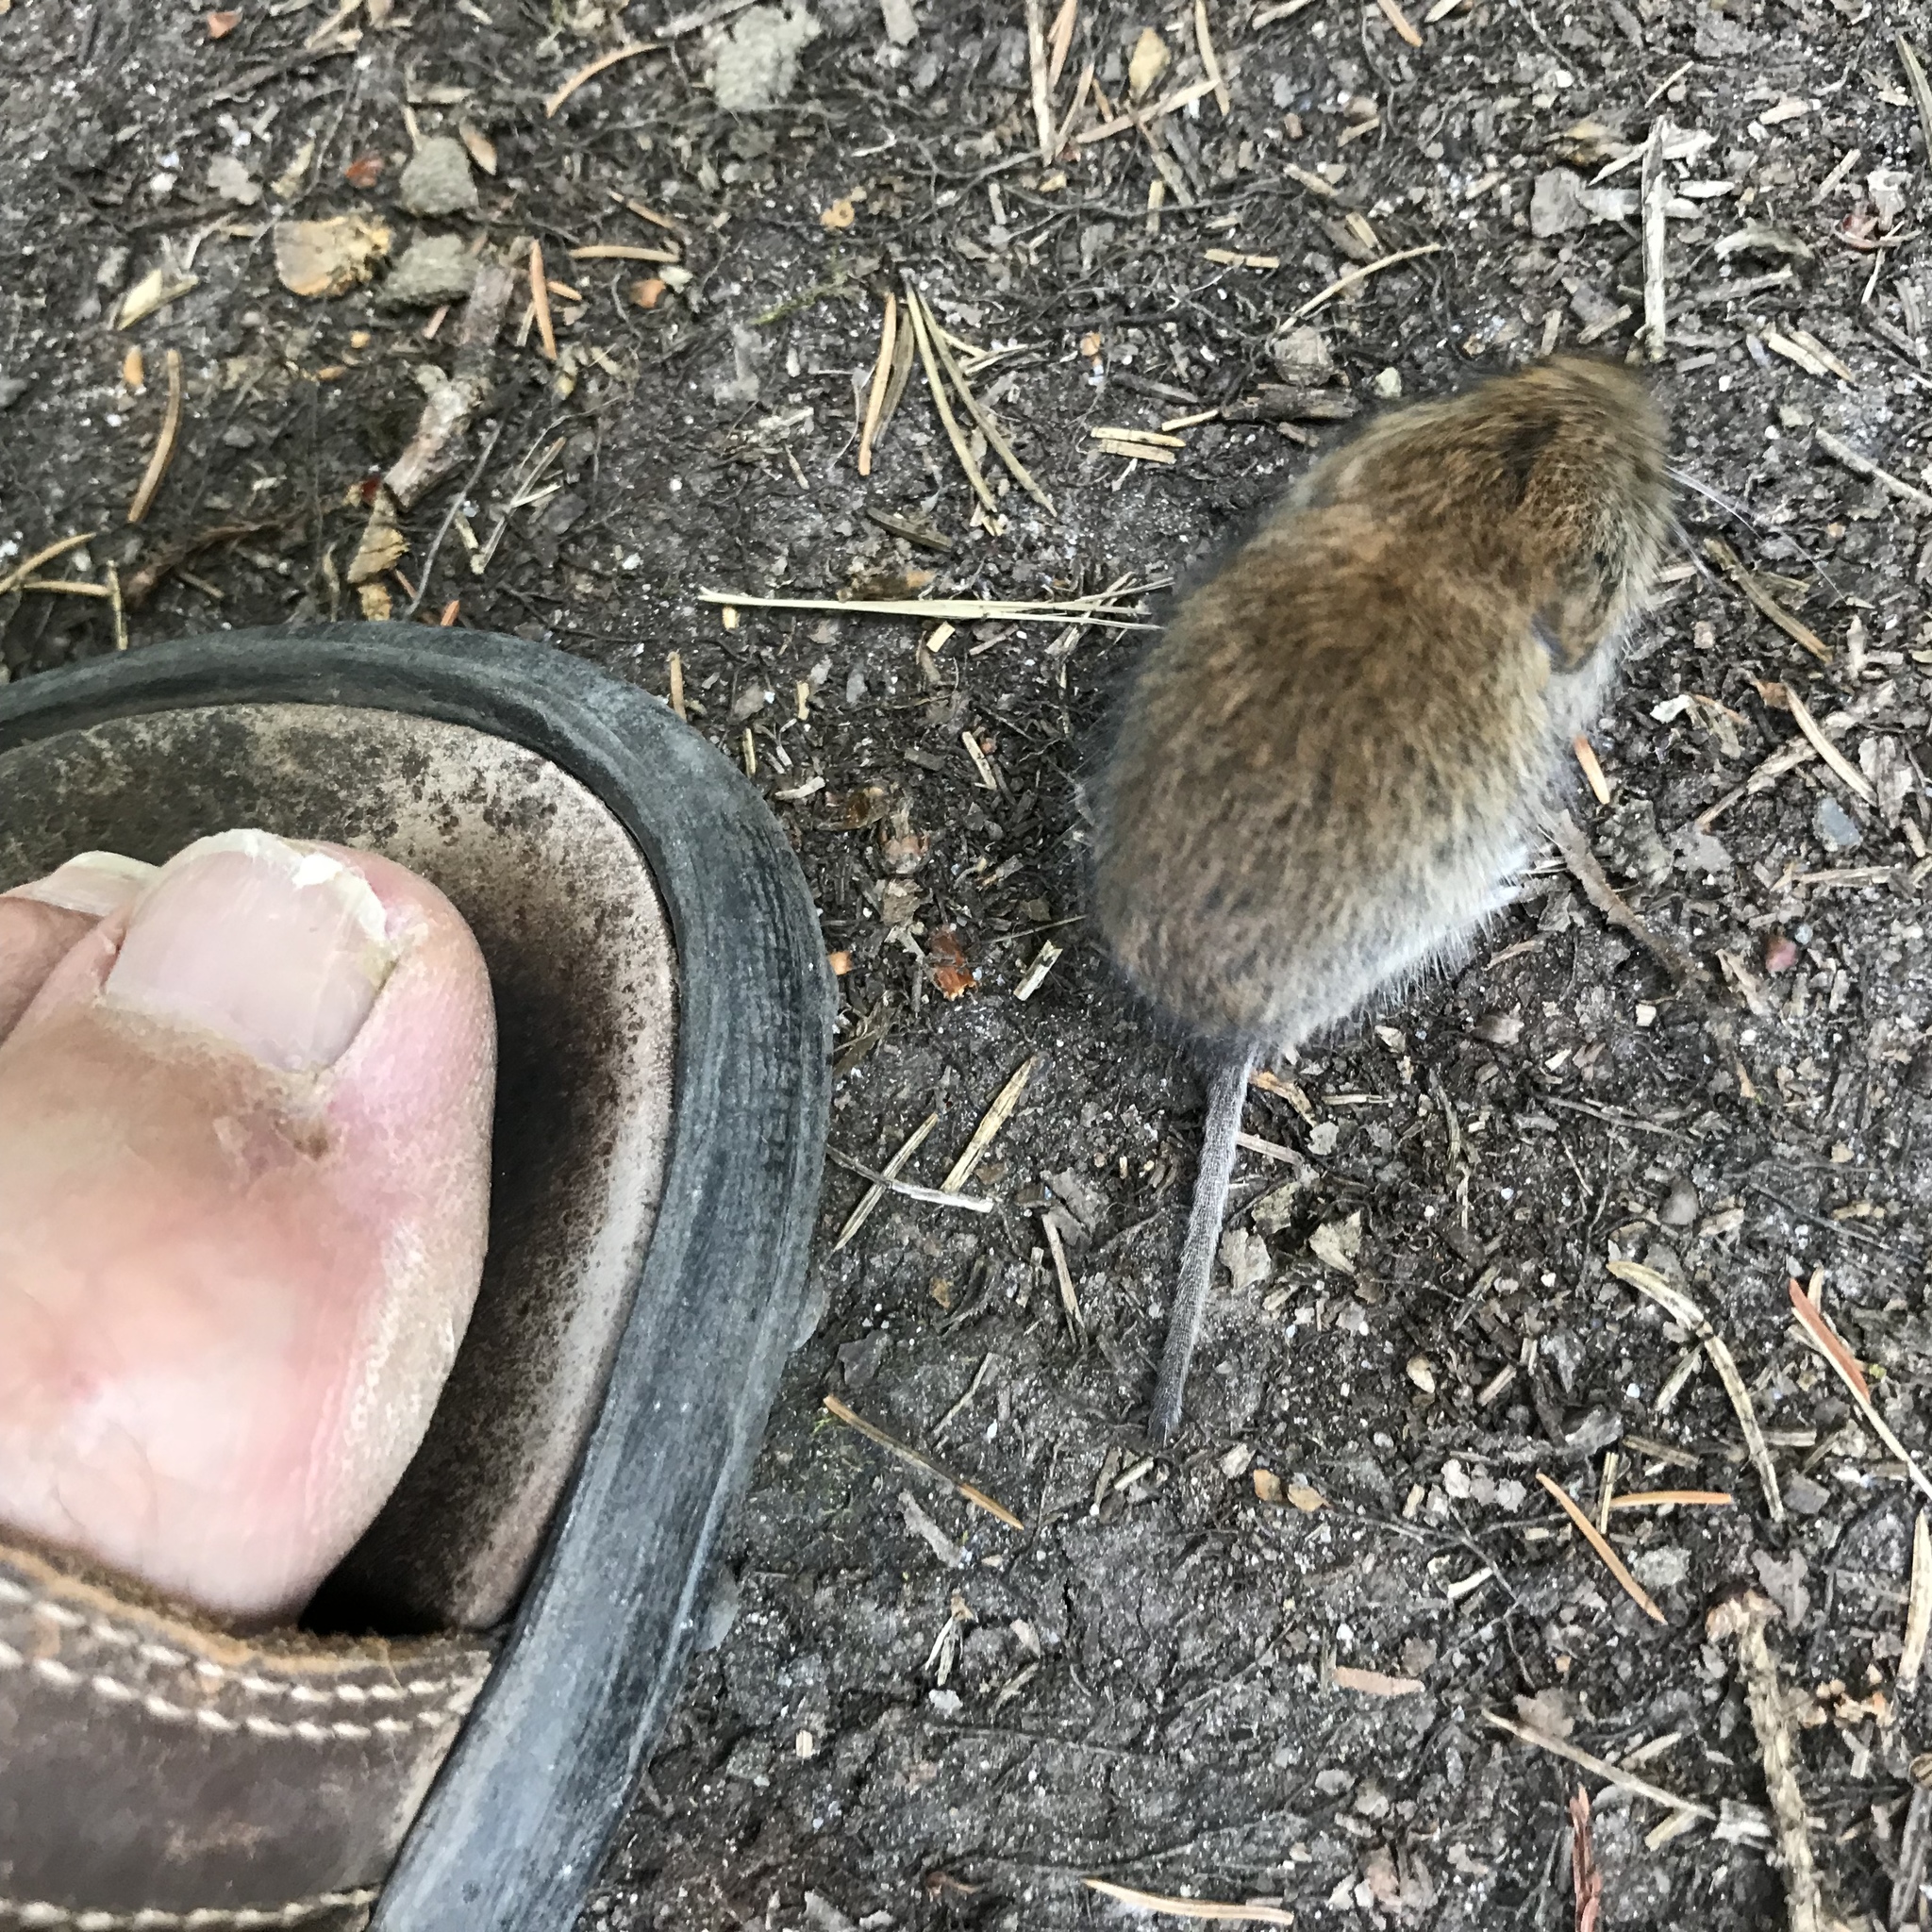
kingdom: Animalia
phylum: Chordata
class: Mammalia
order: Rodentia
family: Cricetidae
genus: Myodes
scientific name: Myodes glareolus
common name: Bank vole
